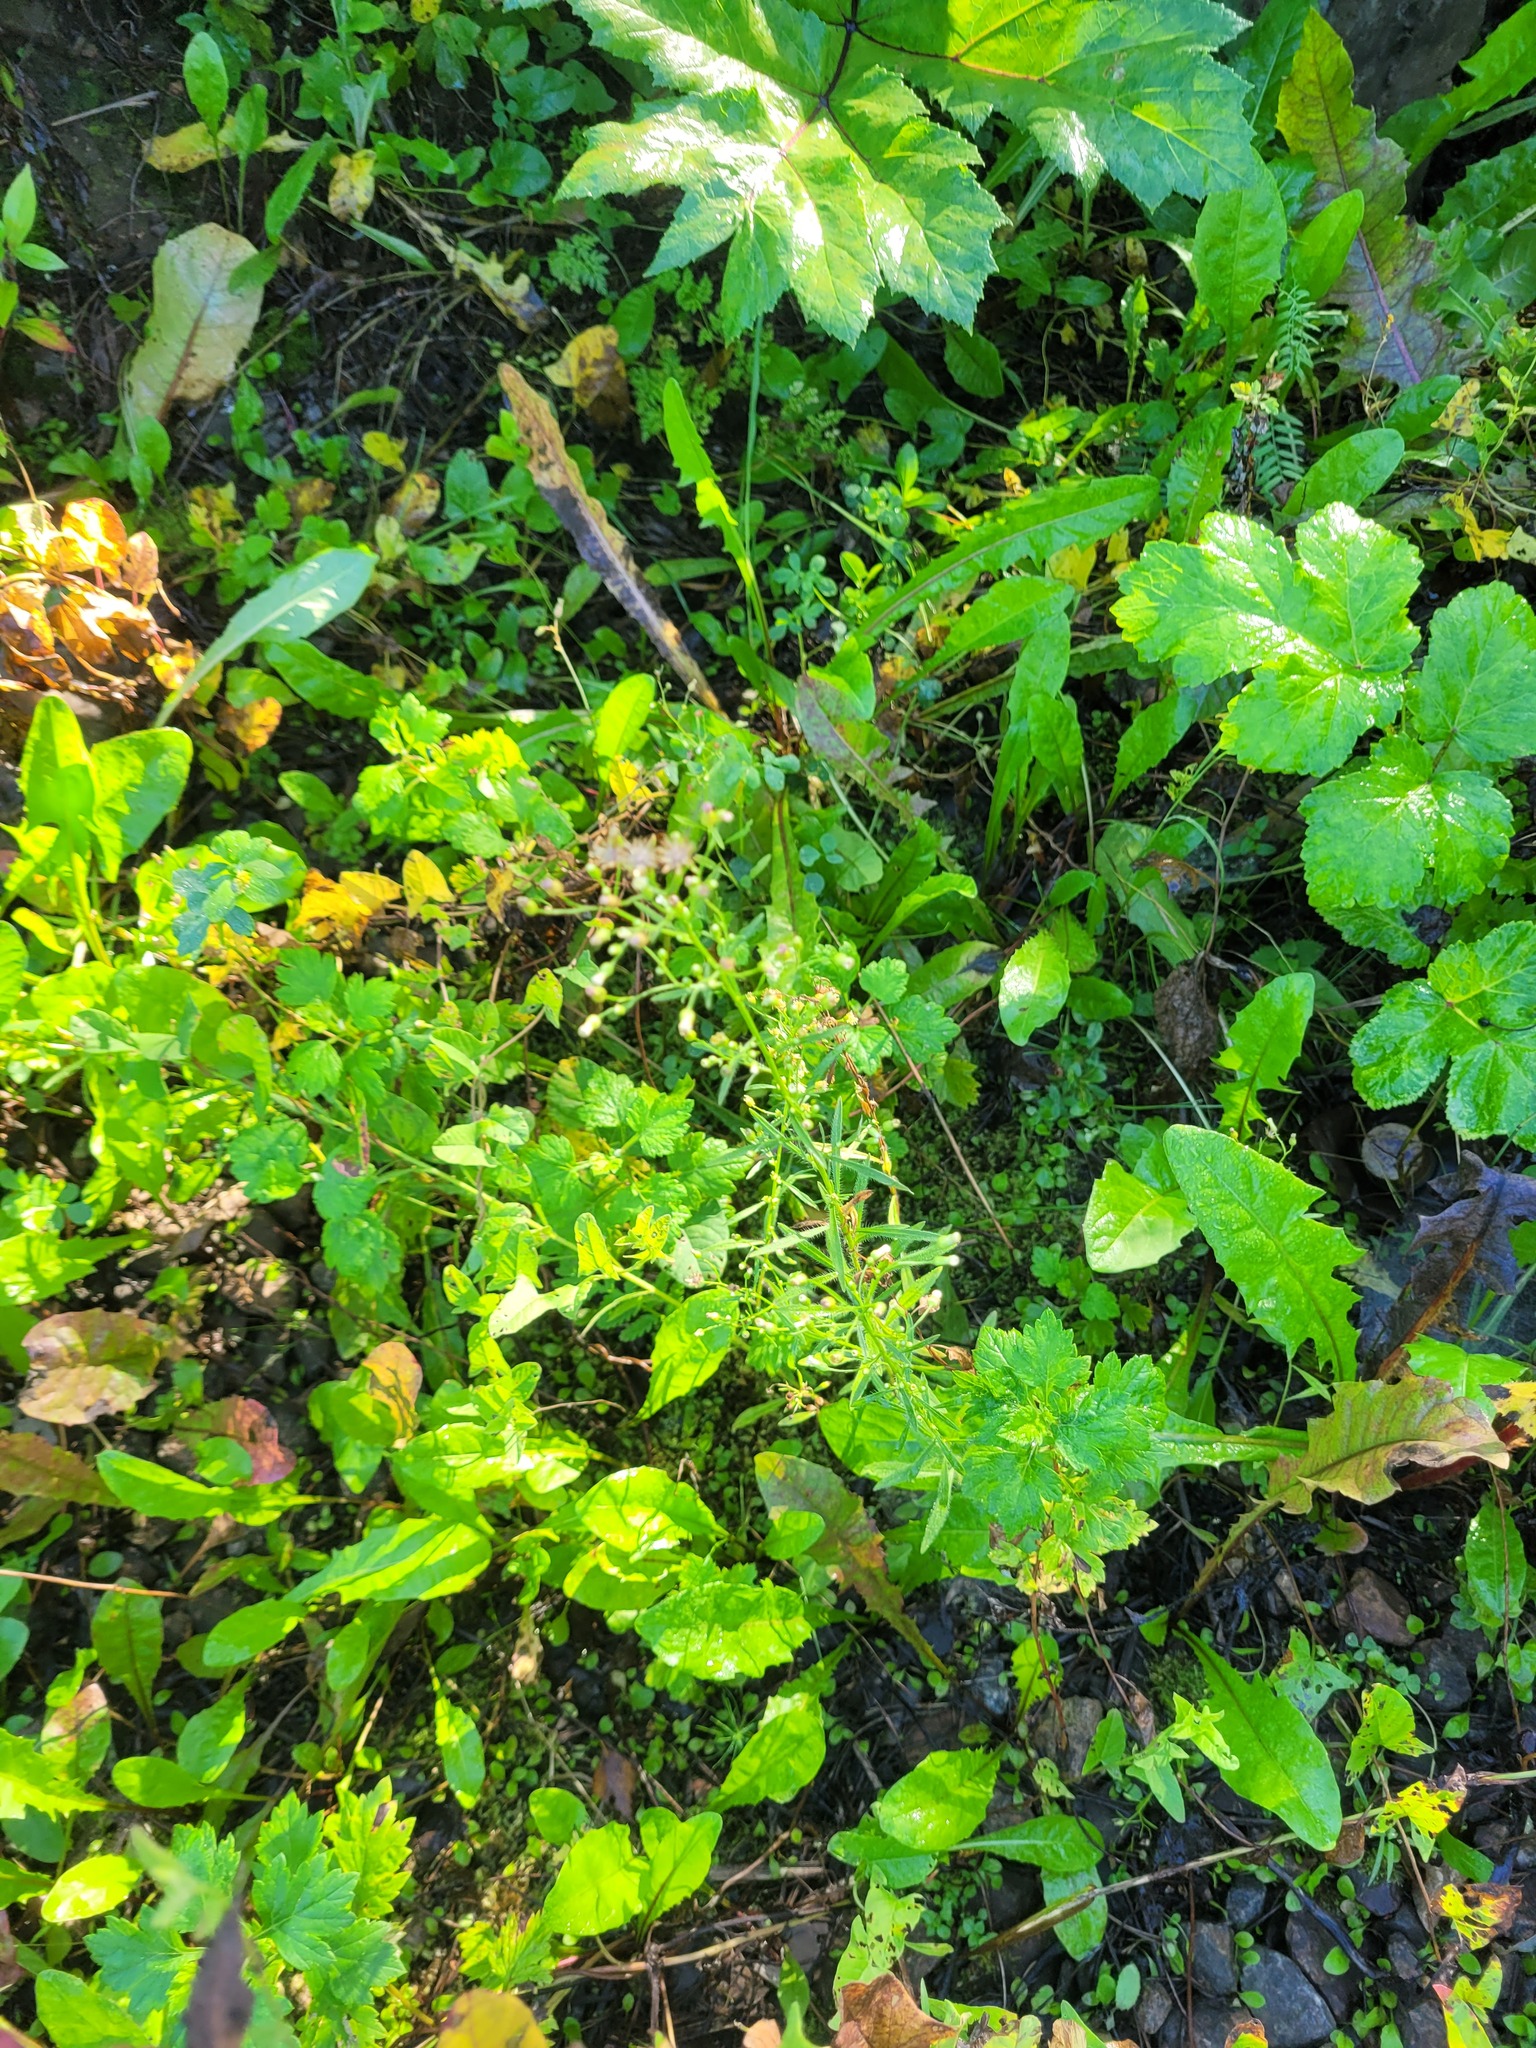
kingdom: Plantae
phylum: Tracheophyta
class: Magnoliopsida
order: Asterales
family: Asteraceae
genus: Erigeron
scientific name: Erigeron canadensis
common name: Canadian fleabane
